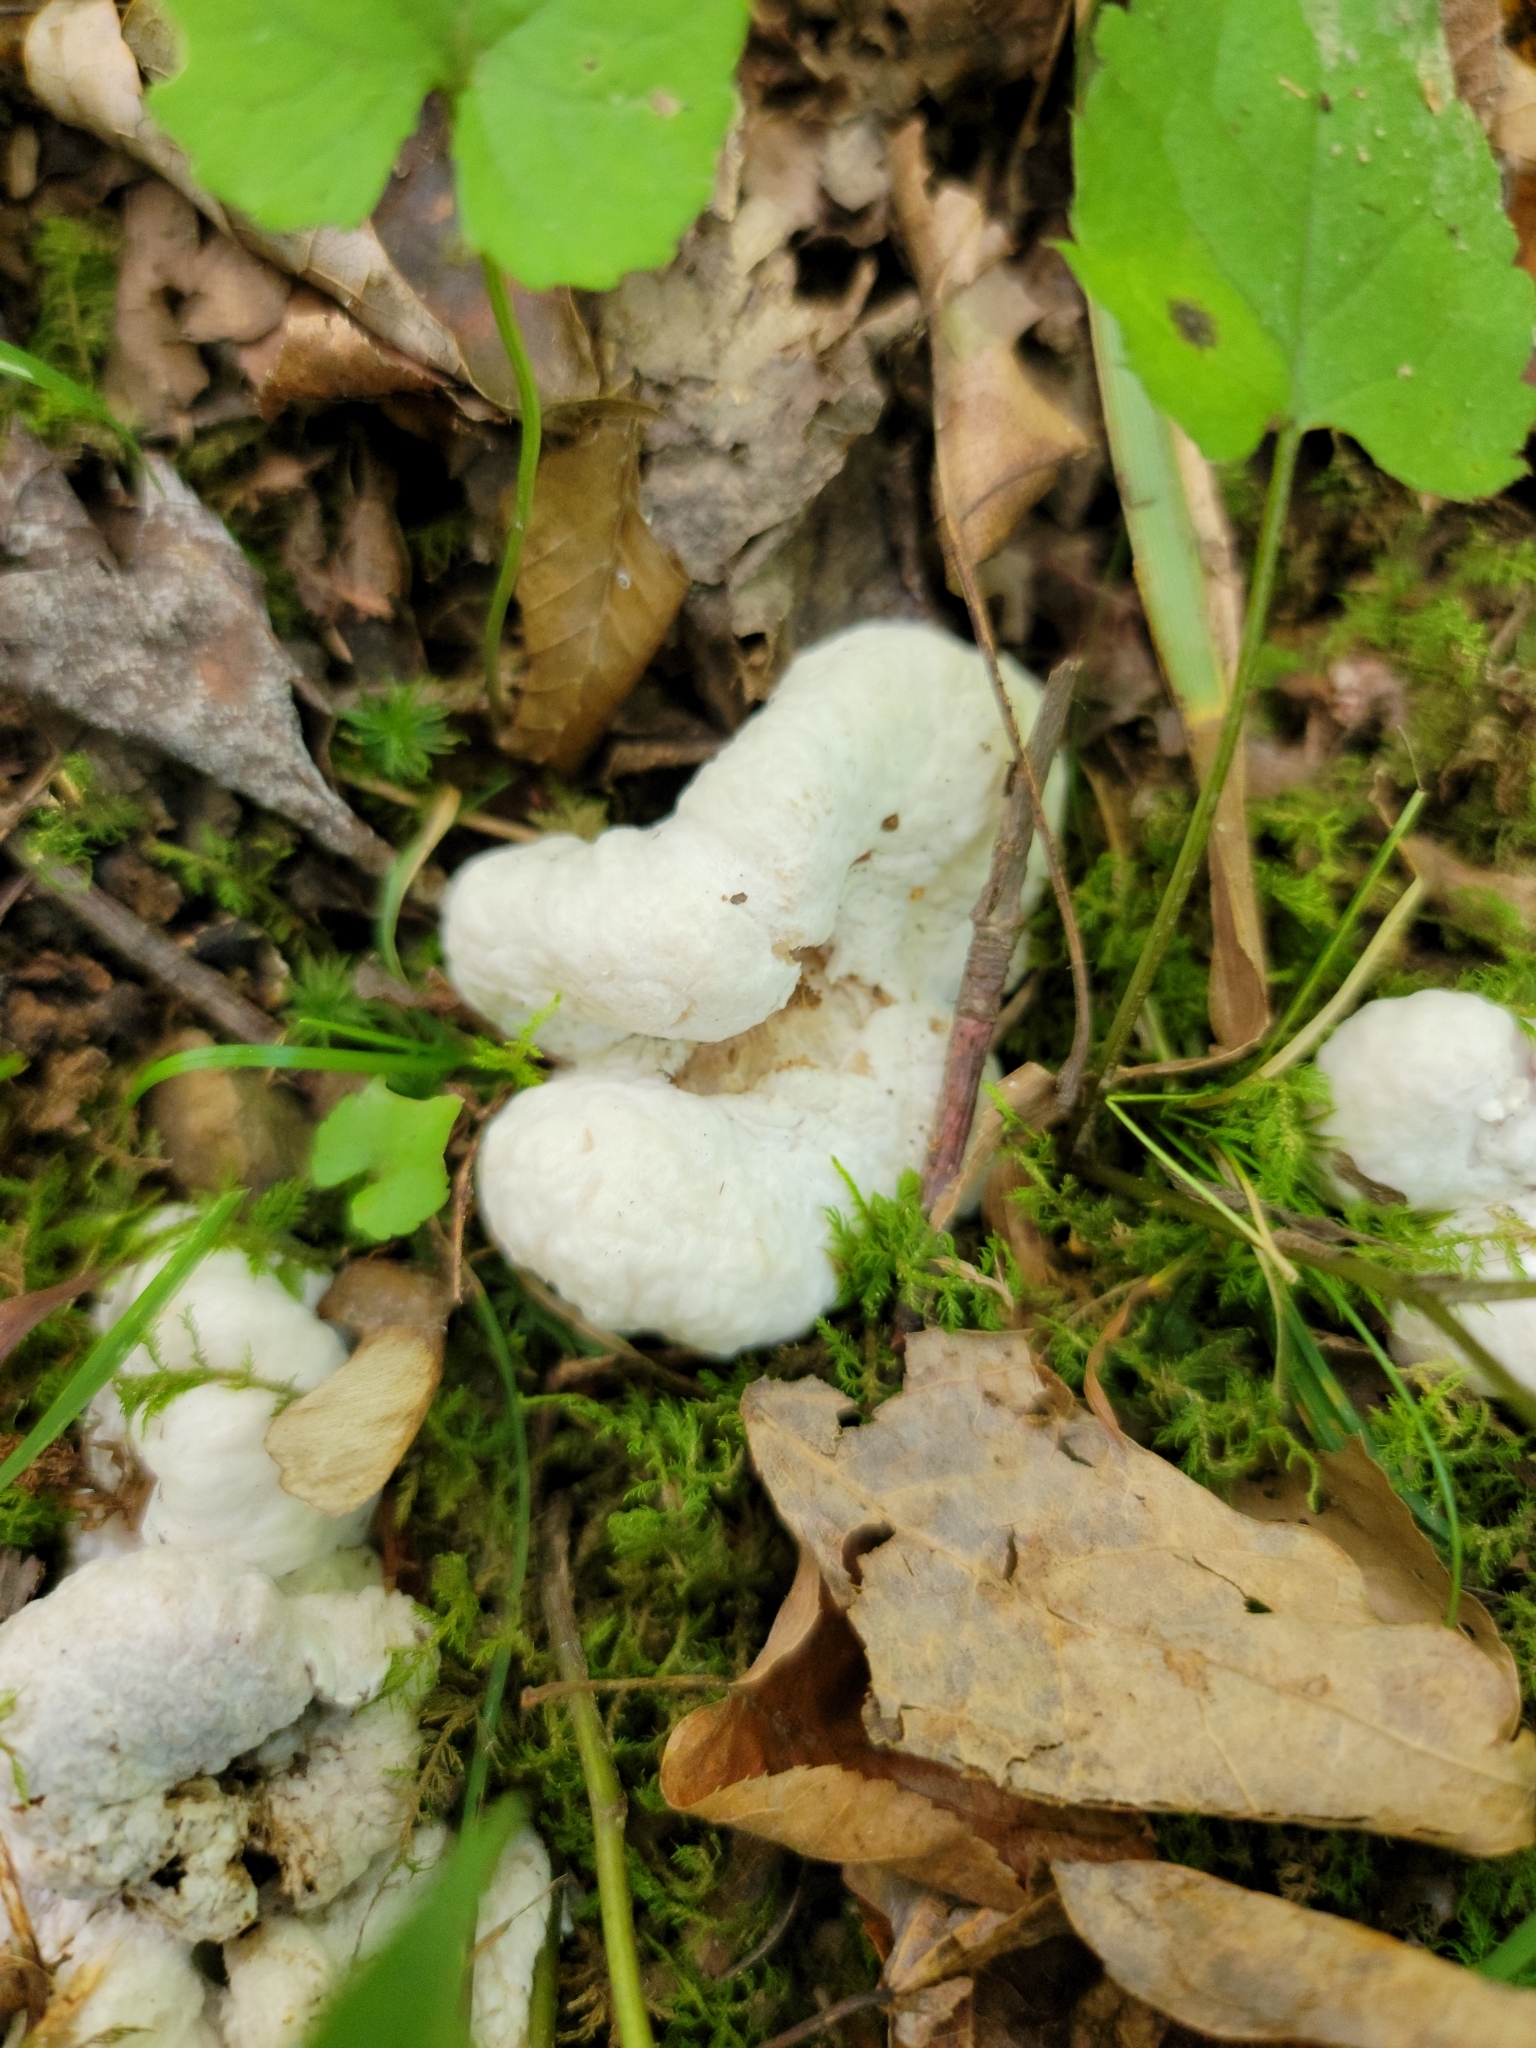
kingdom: Fungi
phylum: Basidiomycota
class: Agaricomycetes
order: Agaricales
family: Entolomataceae
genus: Entoloma
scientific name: Entoloma abortivum
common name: Aborted entoloma
